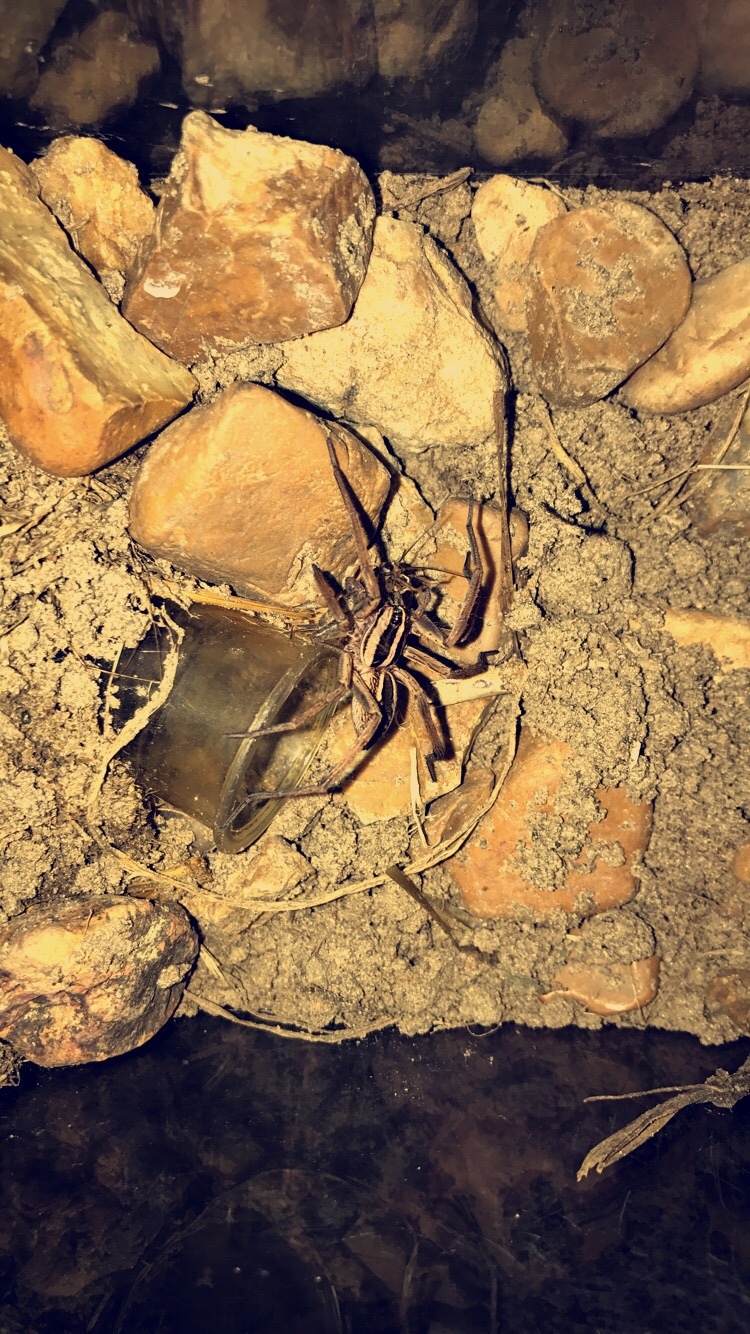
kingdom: Animalia
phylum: Arthropoda
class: Arachnida
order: Araneae
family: Lycosidae
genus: Rabidosa
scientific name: Rabidosa rabida
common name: Rabid wolf spider
